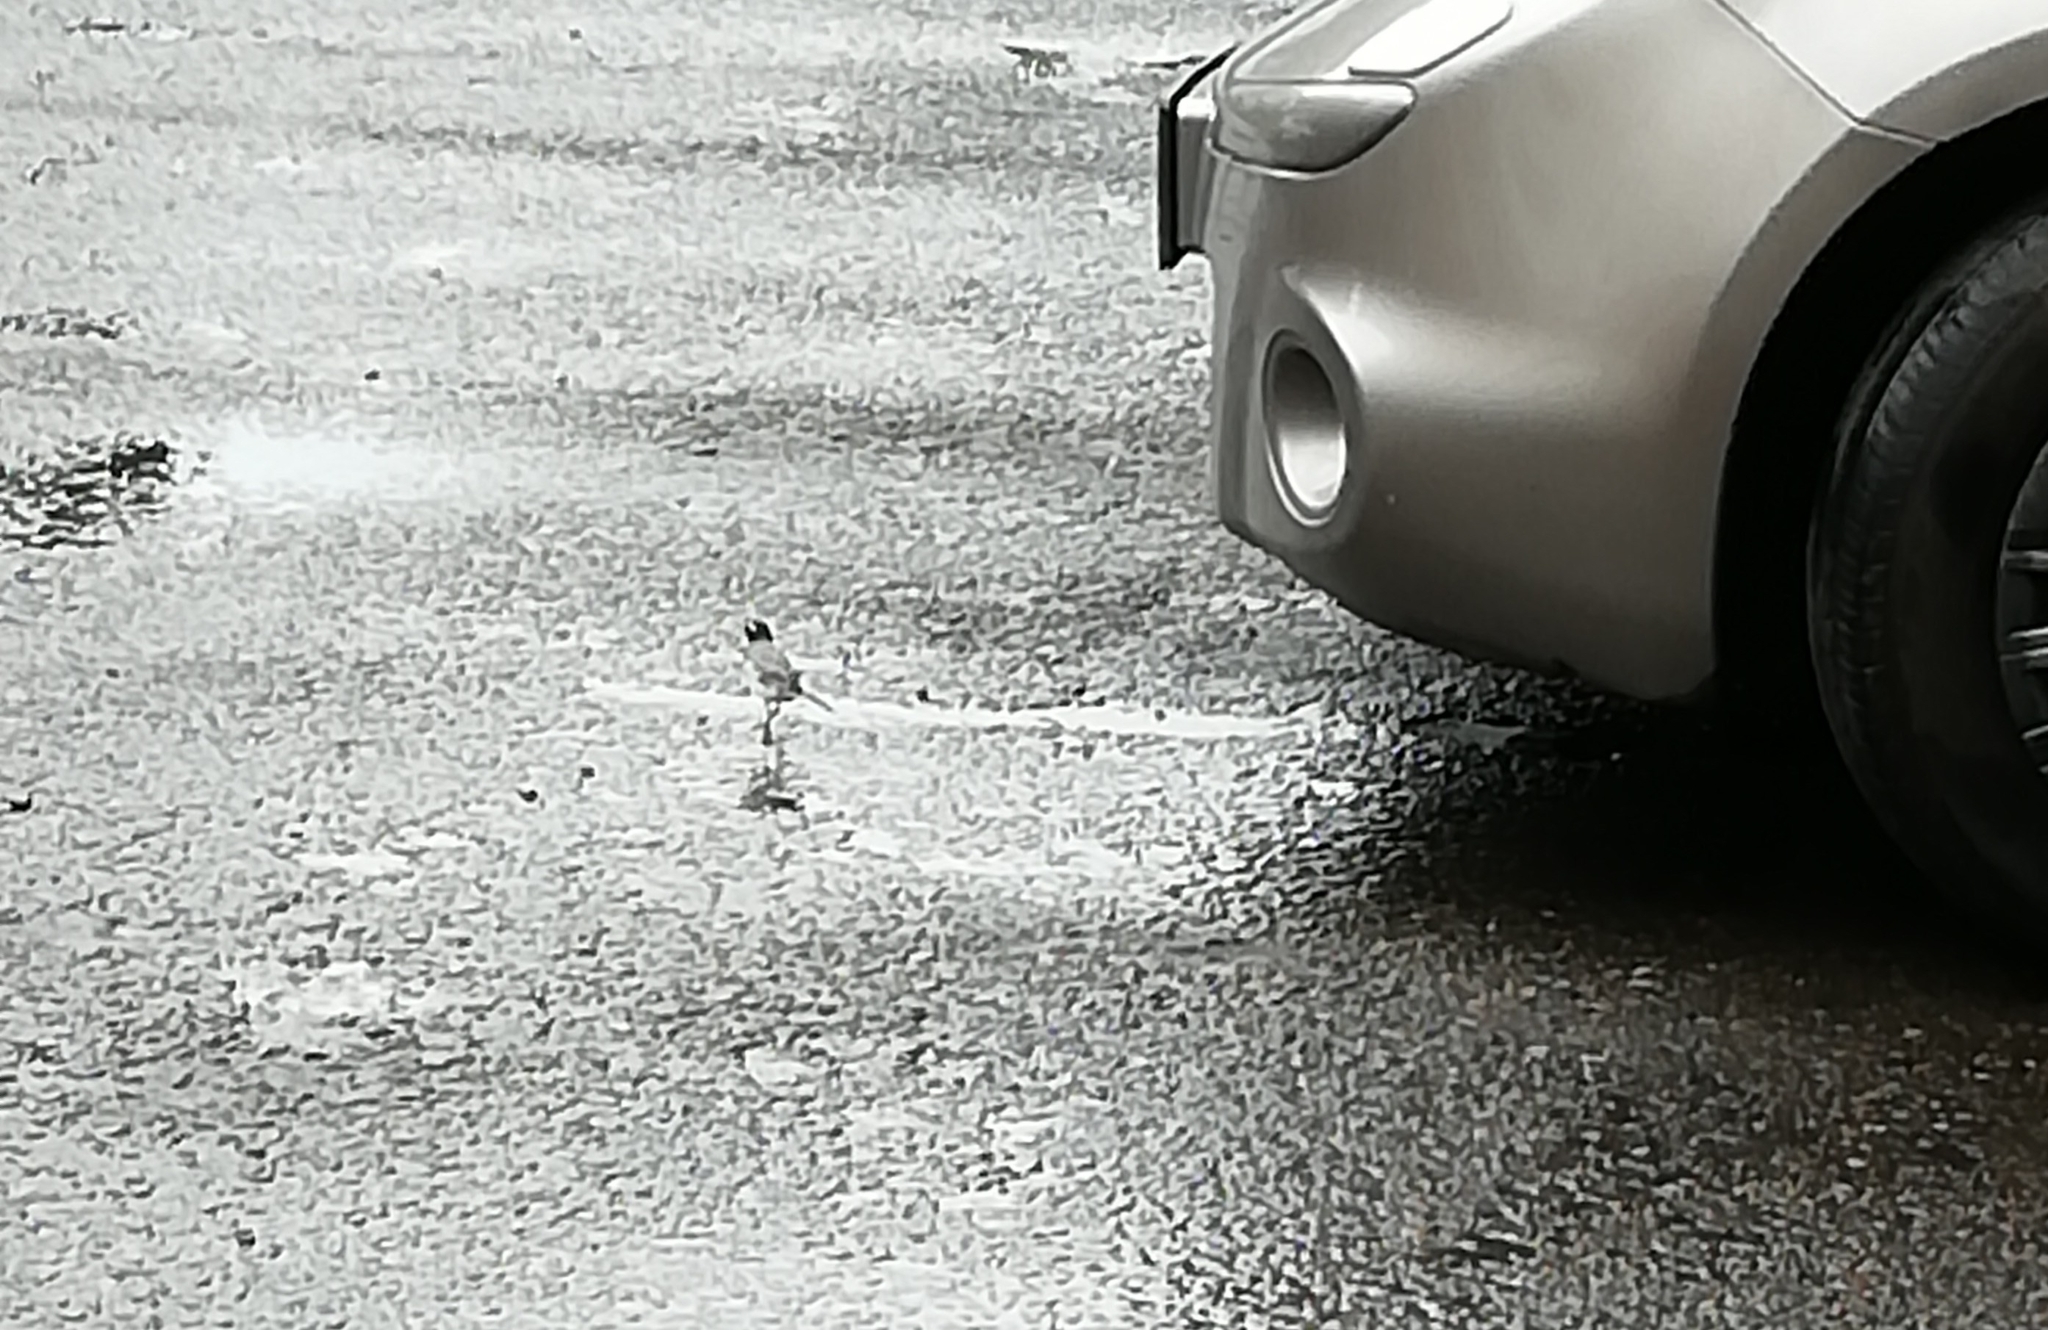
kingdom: Animalia
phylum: Chordata
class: Aves
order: Passeriformes
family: Motacillidae
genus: Motacilla
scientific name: Motacilla alba
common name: White wagtail
